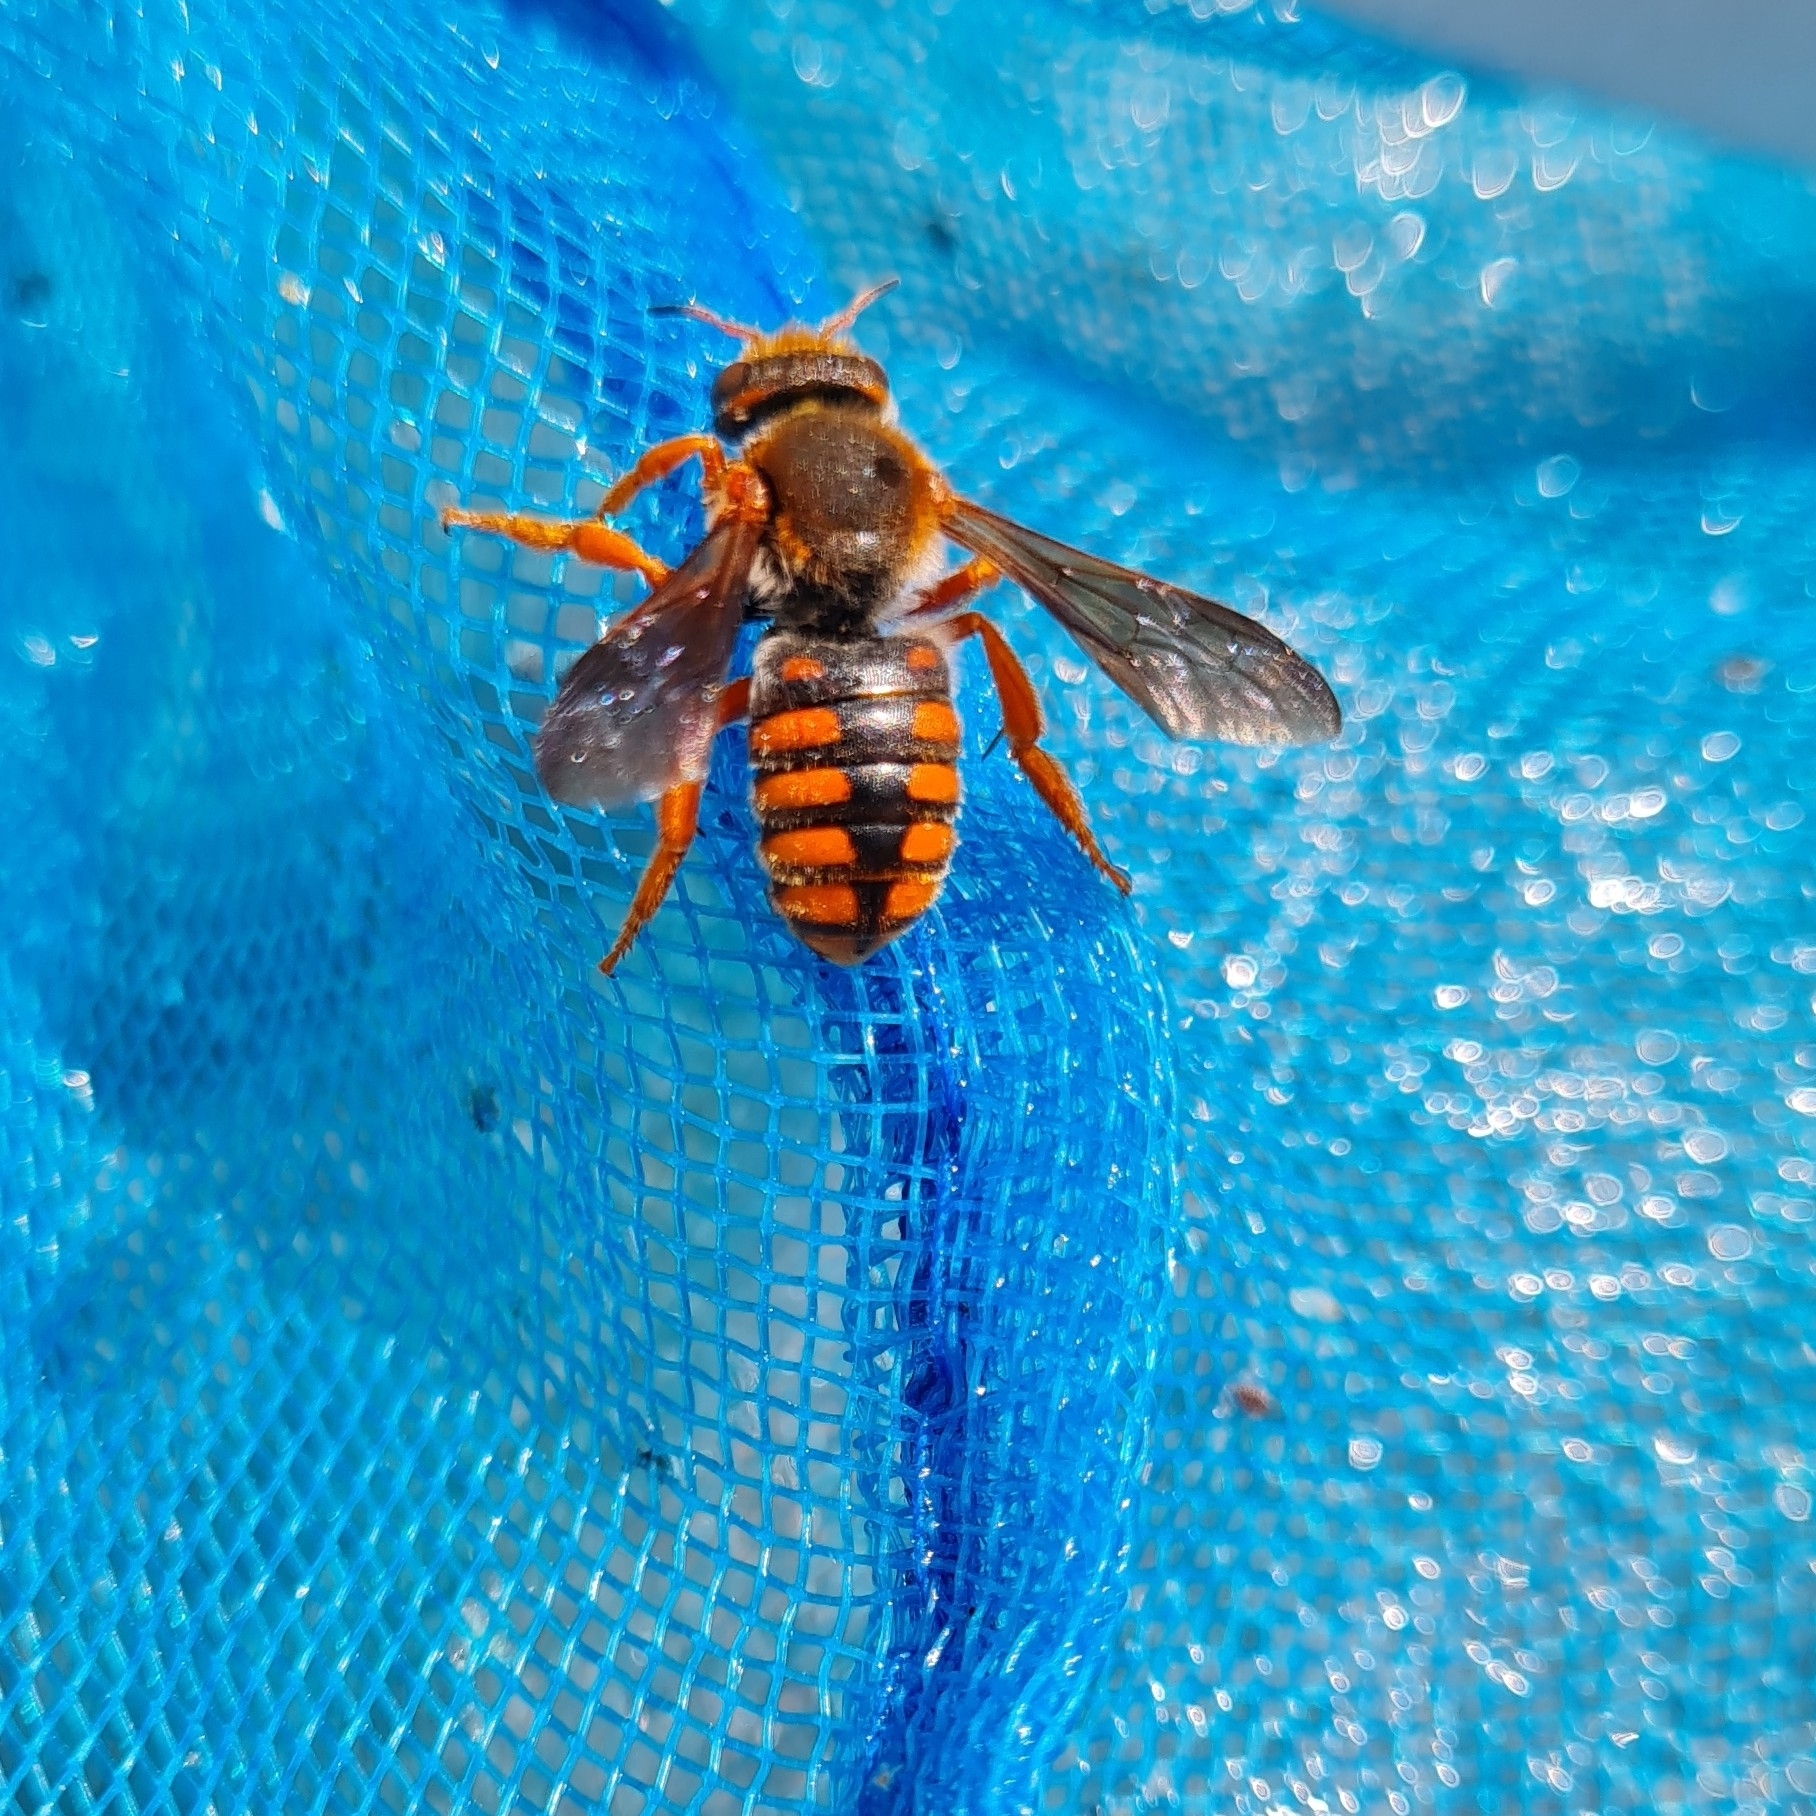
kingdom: Animalia
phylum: Arthropoda
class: Insecta
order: Hymenoptera
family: Megachilidae
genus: Rhodanthidium
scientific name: Rhodanthidium sticticum
